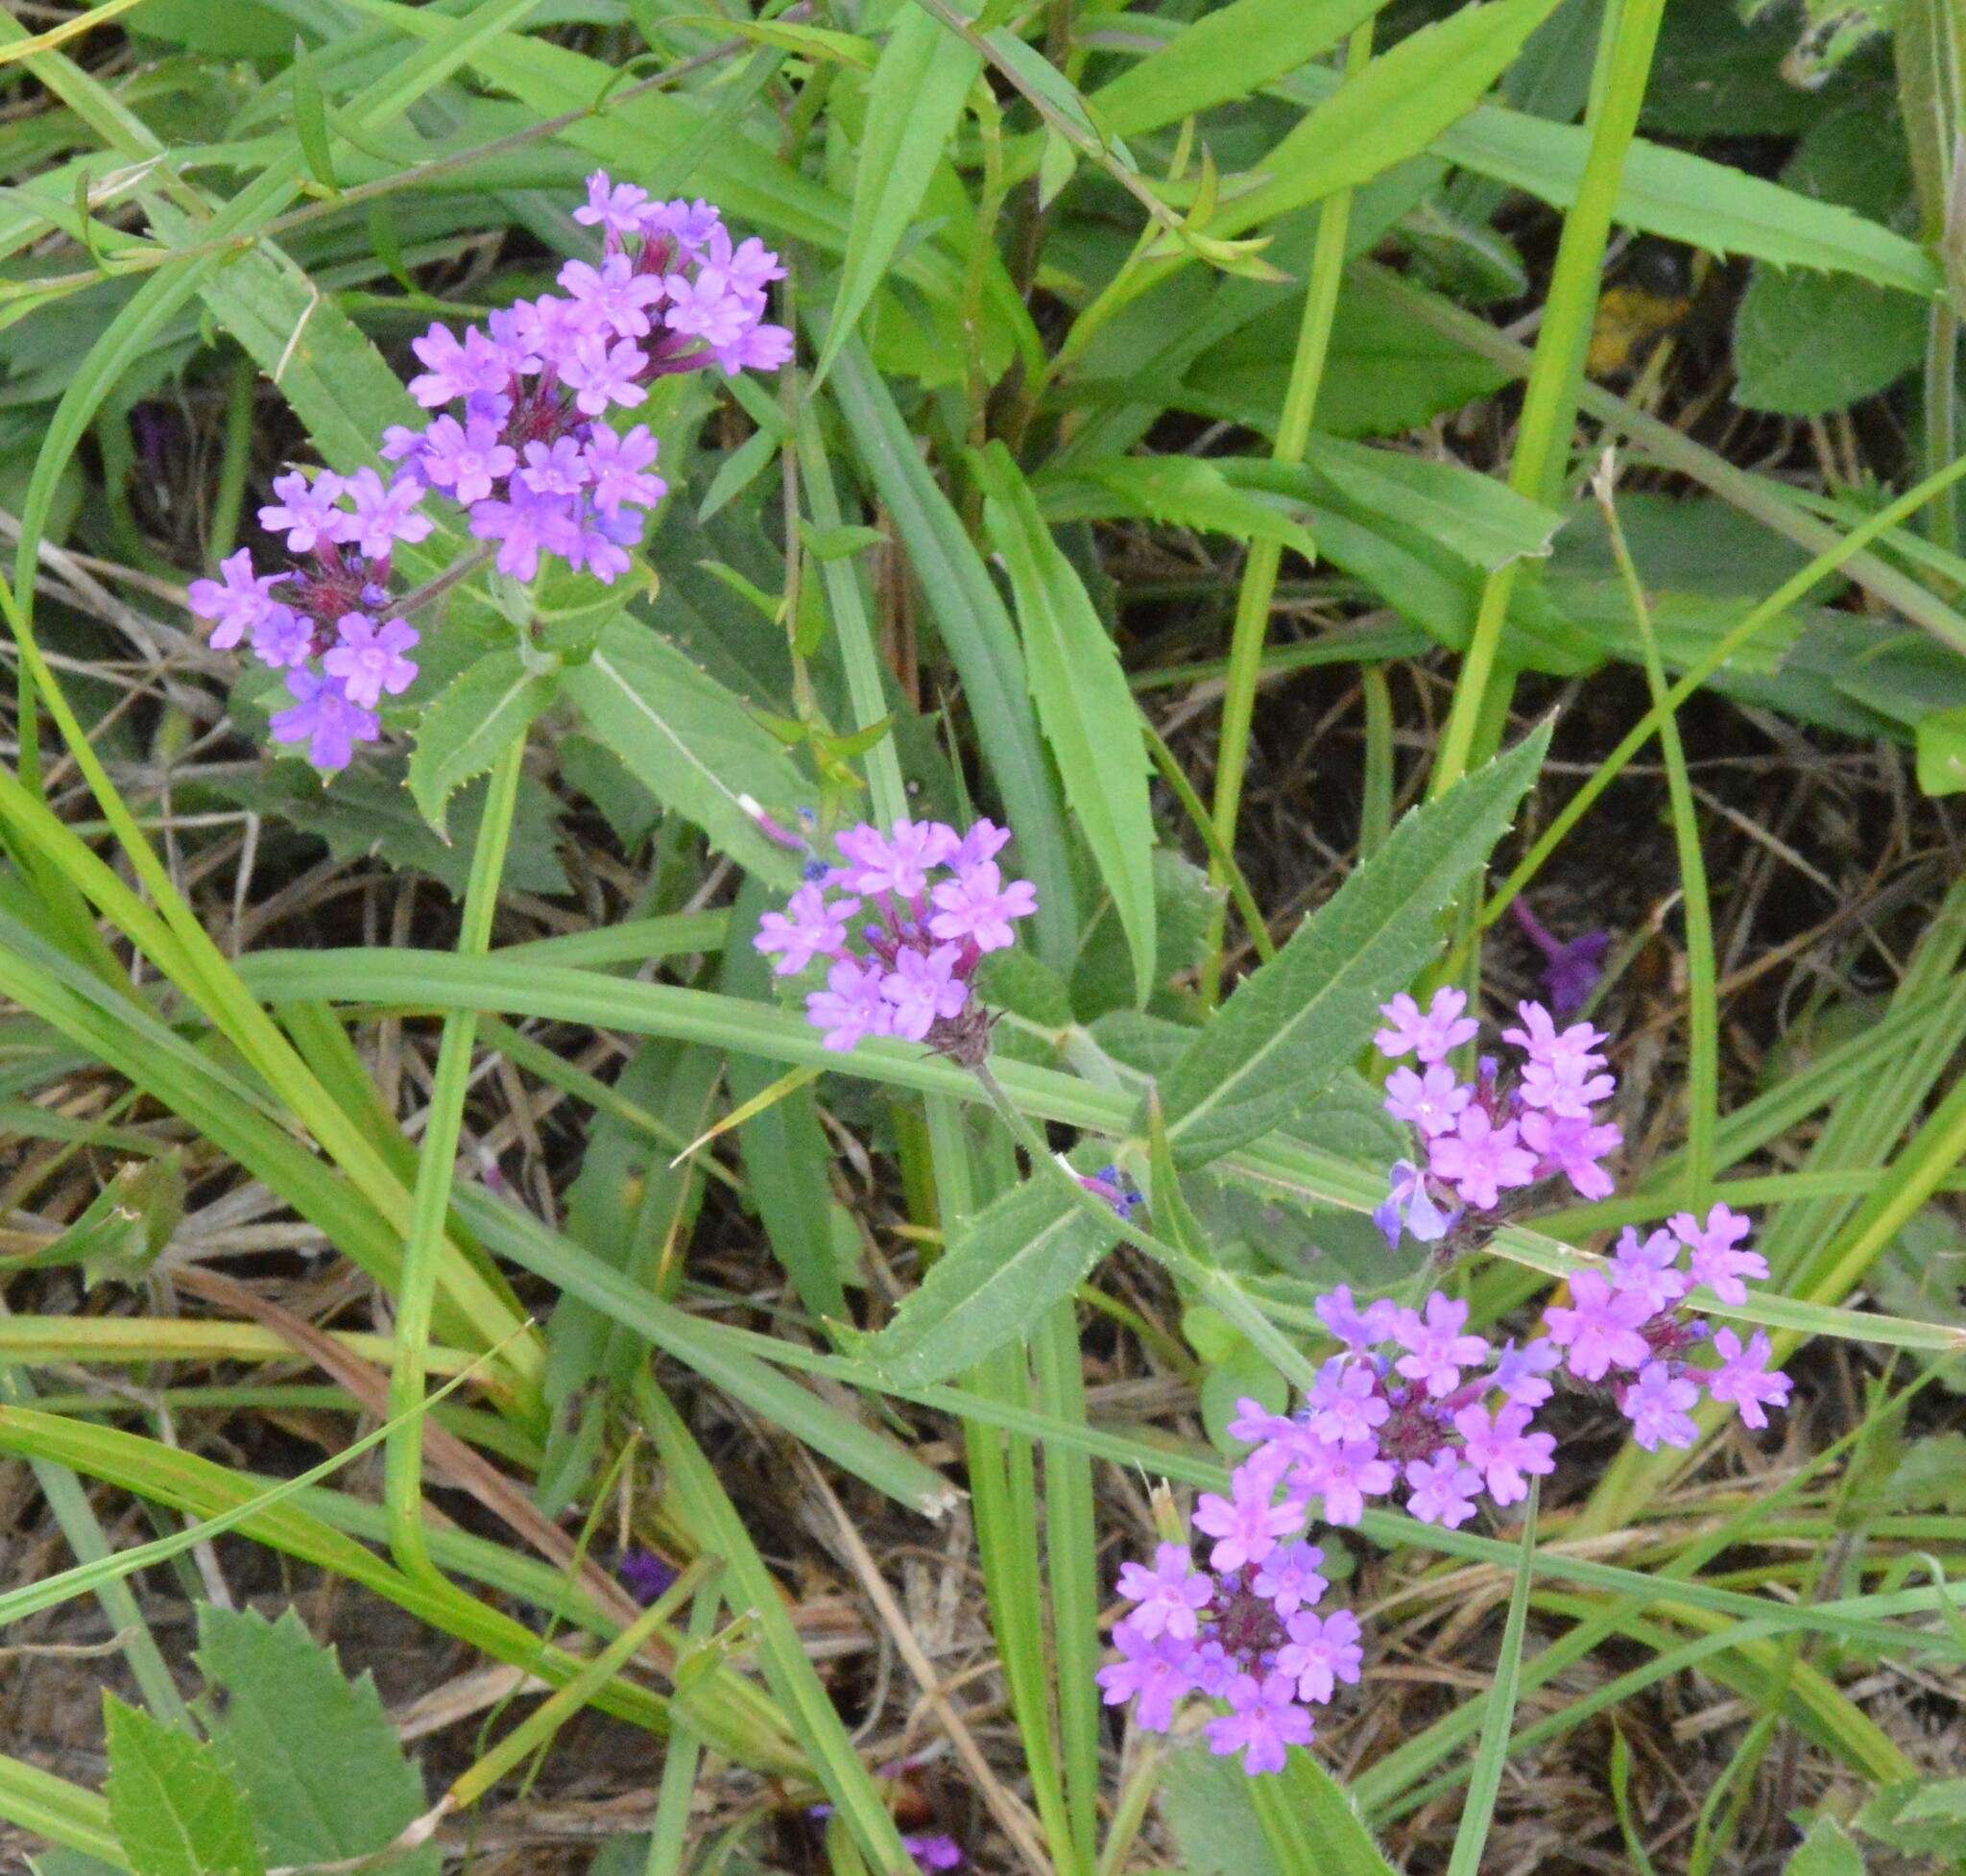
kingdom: Plantae
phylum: Tracheophyta
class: Magnoliopsida
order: Lamiales
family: Verbenaceae
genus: Verbena
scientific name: Verbena rigida
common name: Slender vervain
